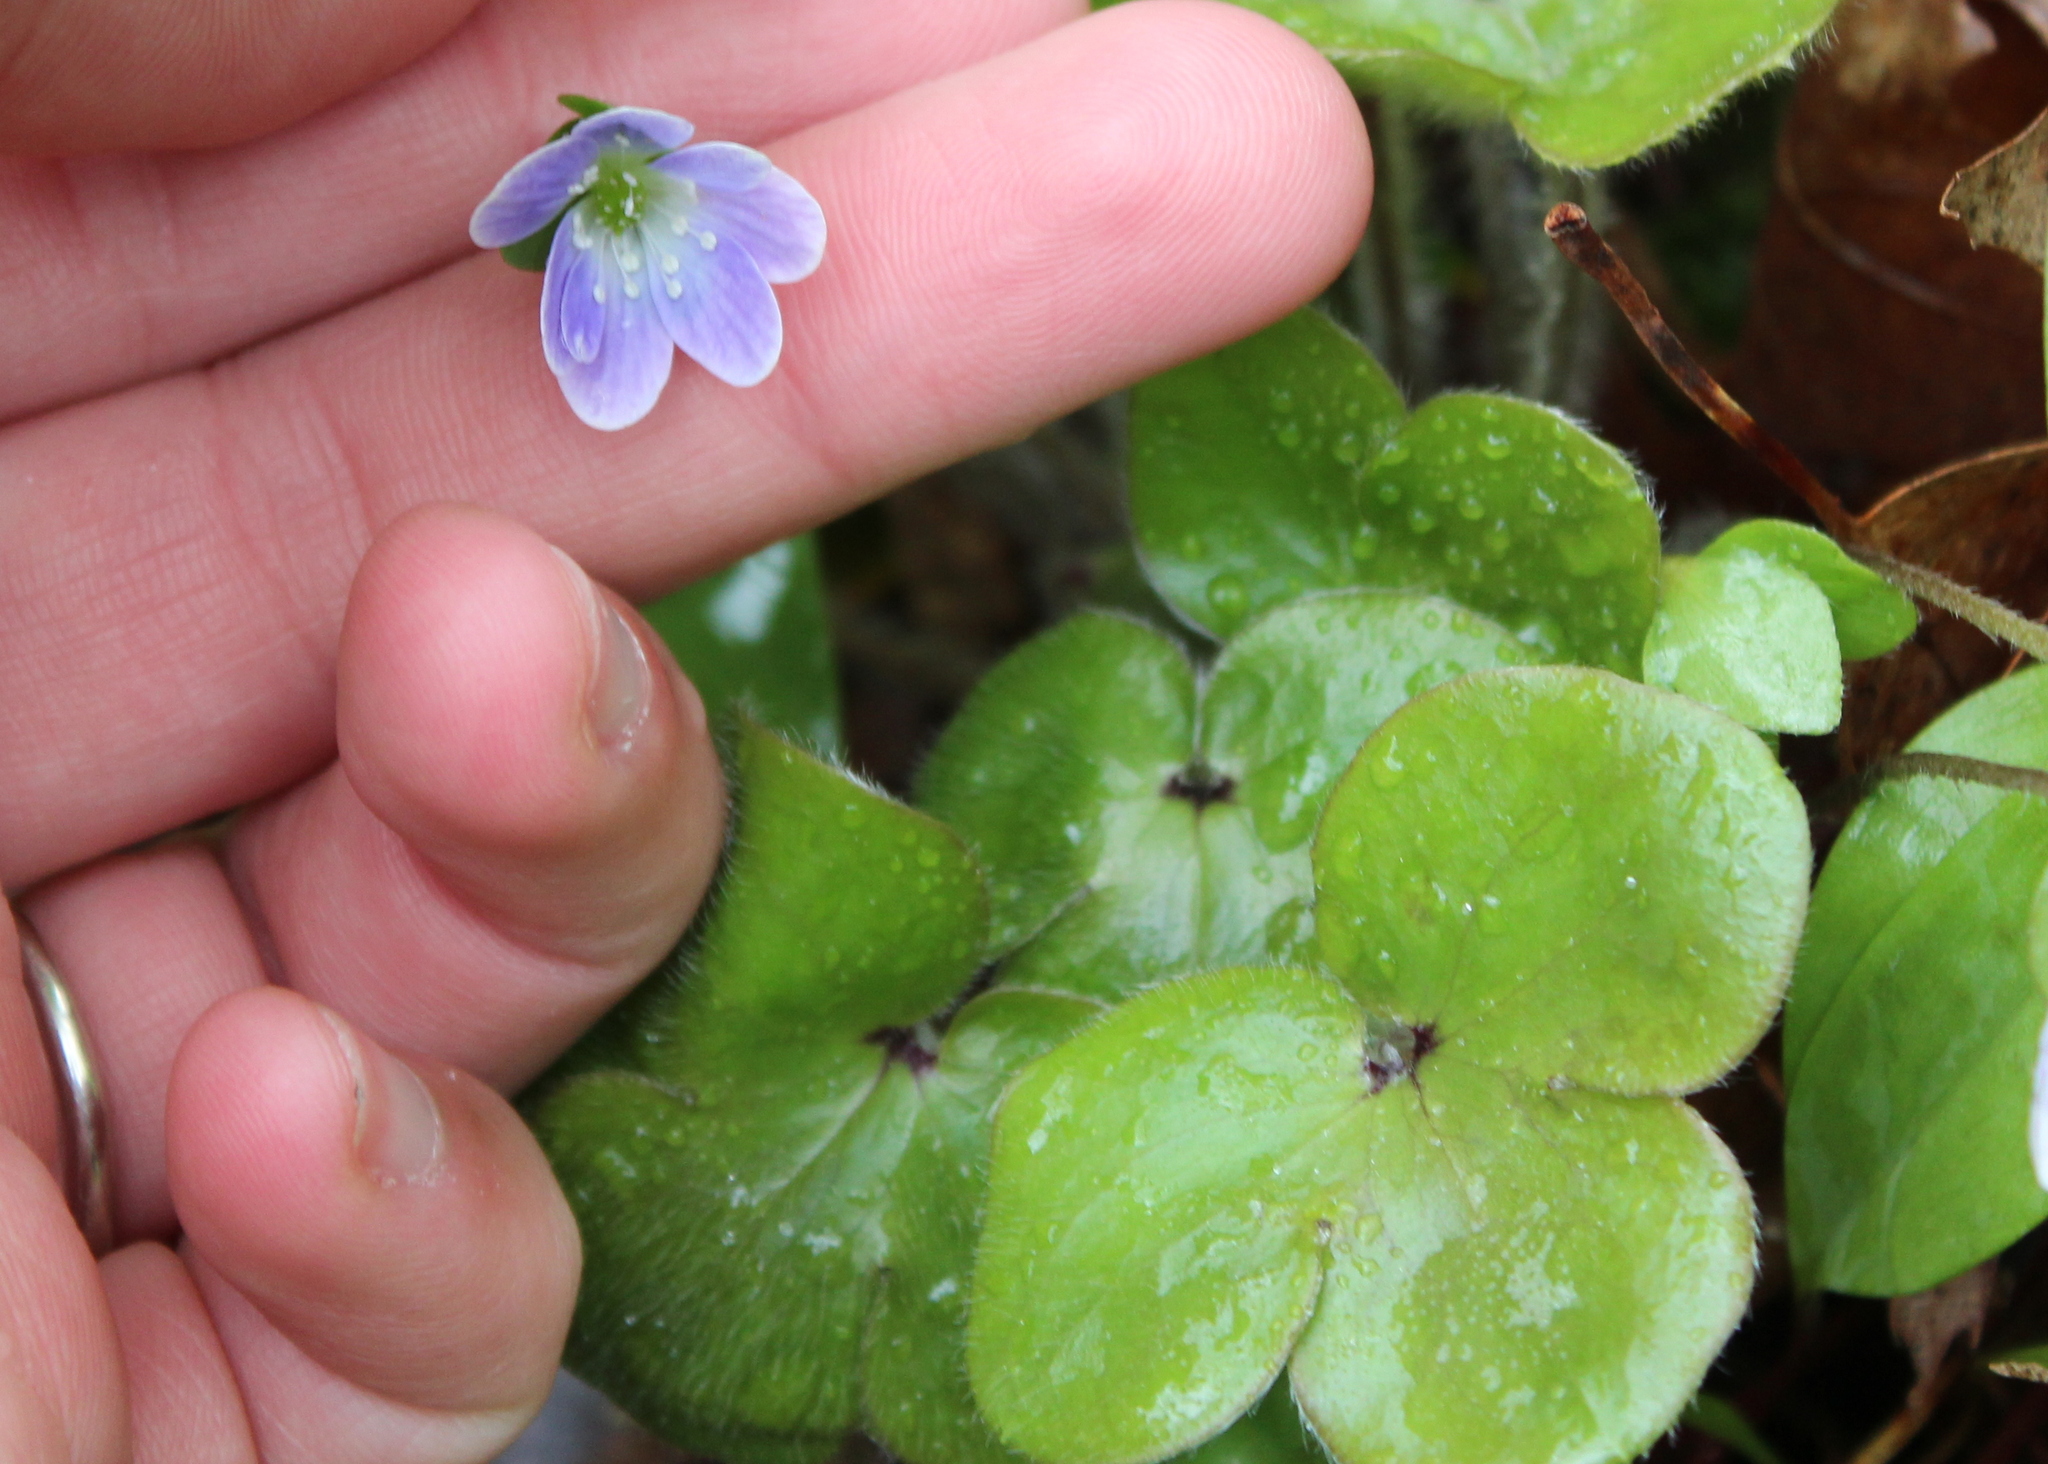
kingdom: Plantae
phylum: Tracheophyta
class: Magnoliopsida
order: Ranunculales
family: Ranunculaceae
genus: Hepatica
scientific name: Hepatica americana
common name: American hepatica
